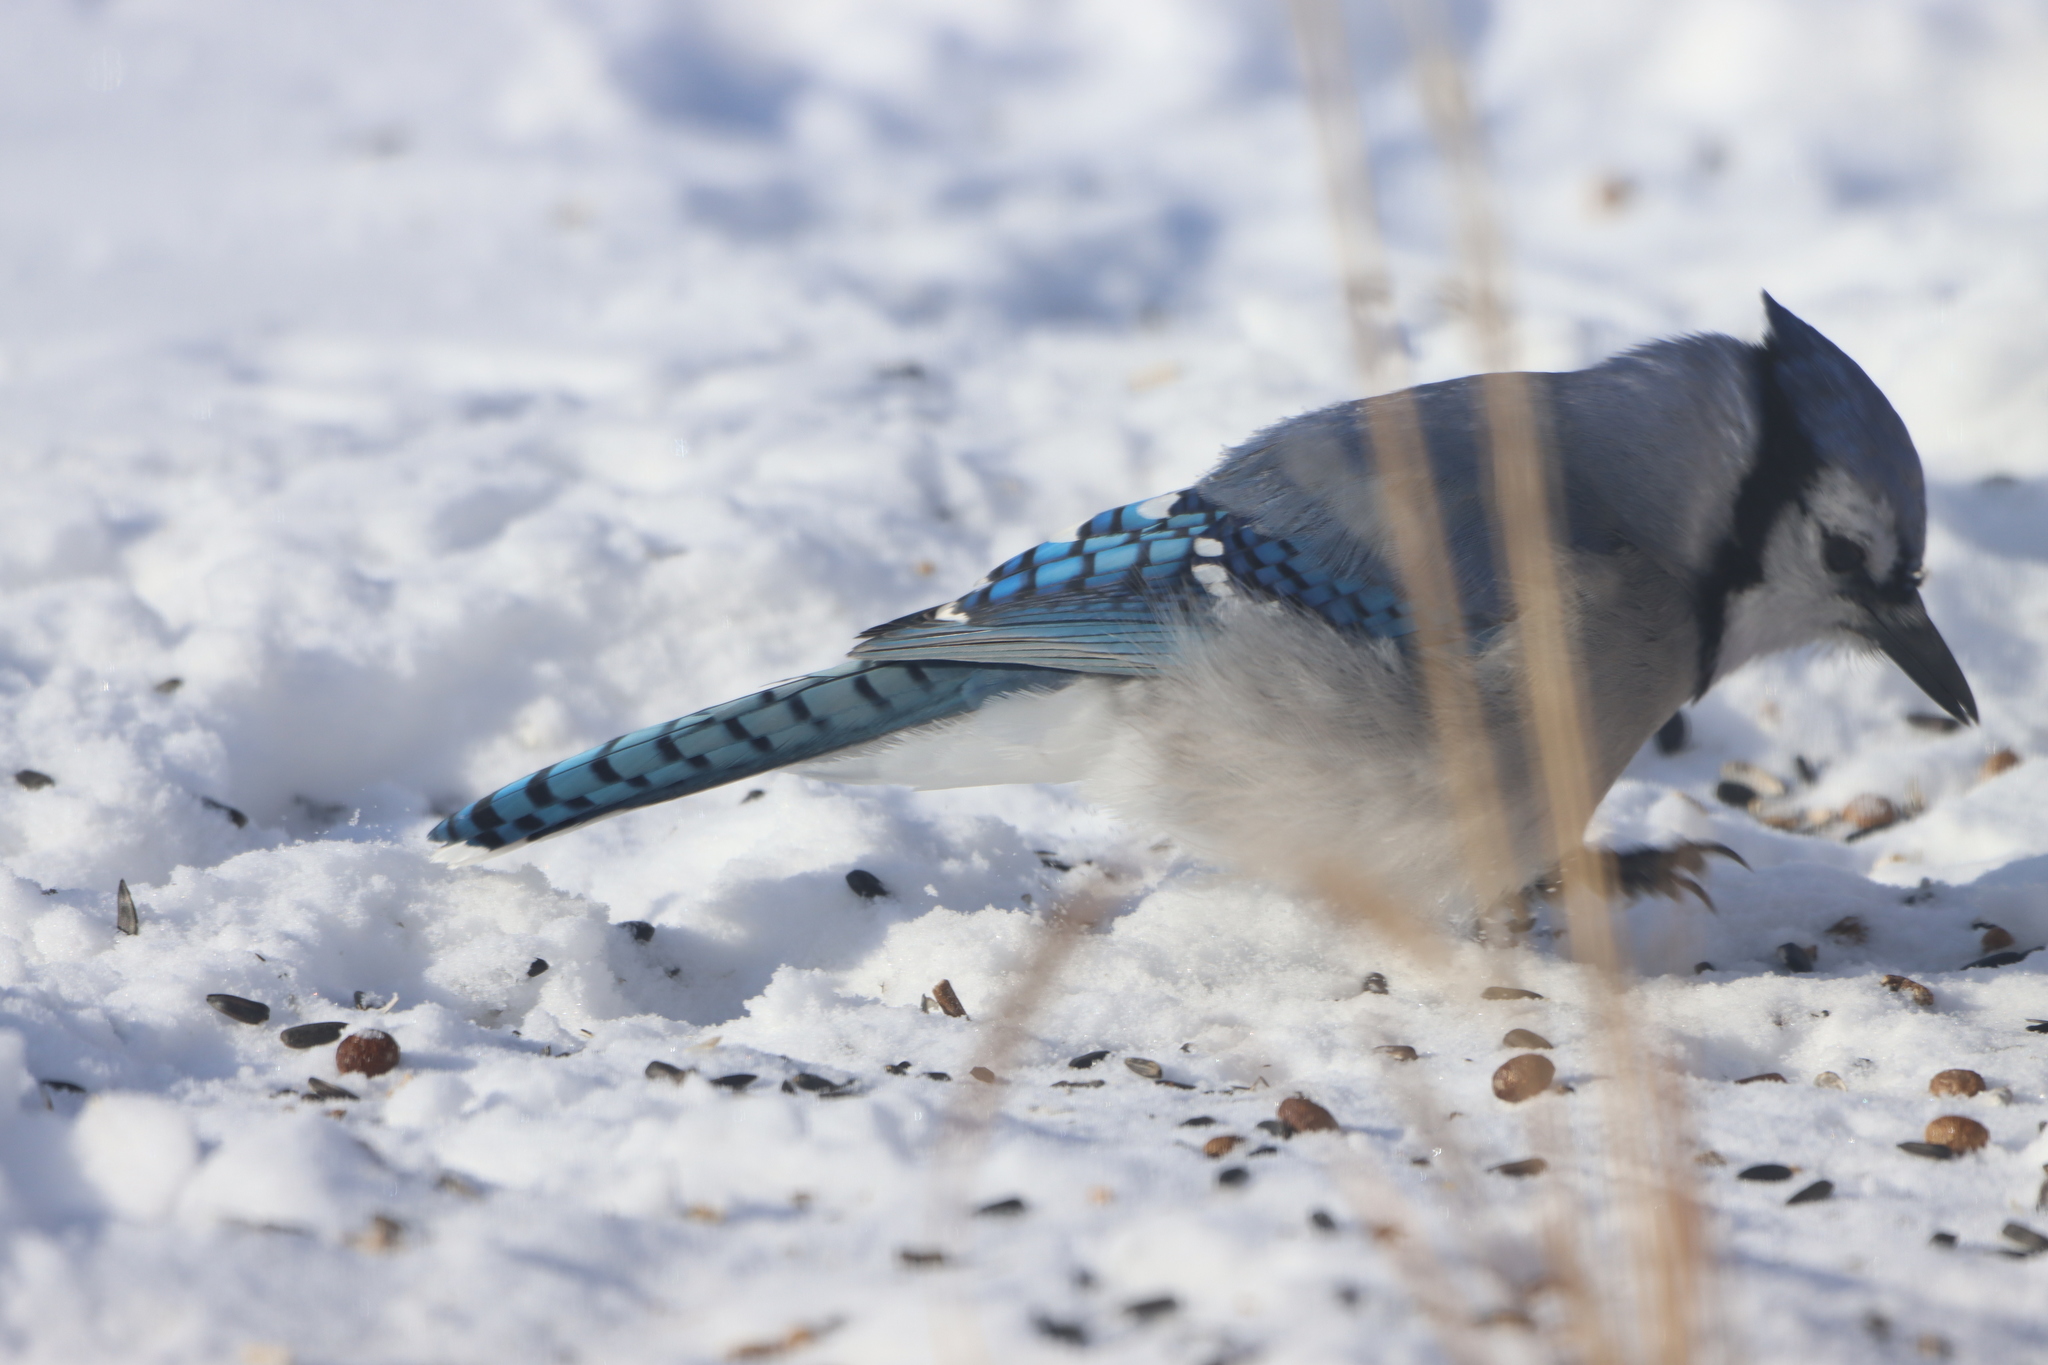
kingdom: Animalia
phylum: Chordata
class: Aves
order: Passeriformes
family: Corvidae
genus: Cyanocitta
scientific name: Cyanocitta cristata
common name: Blue jay
